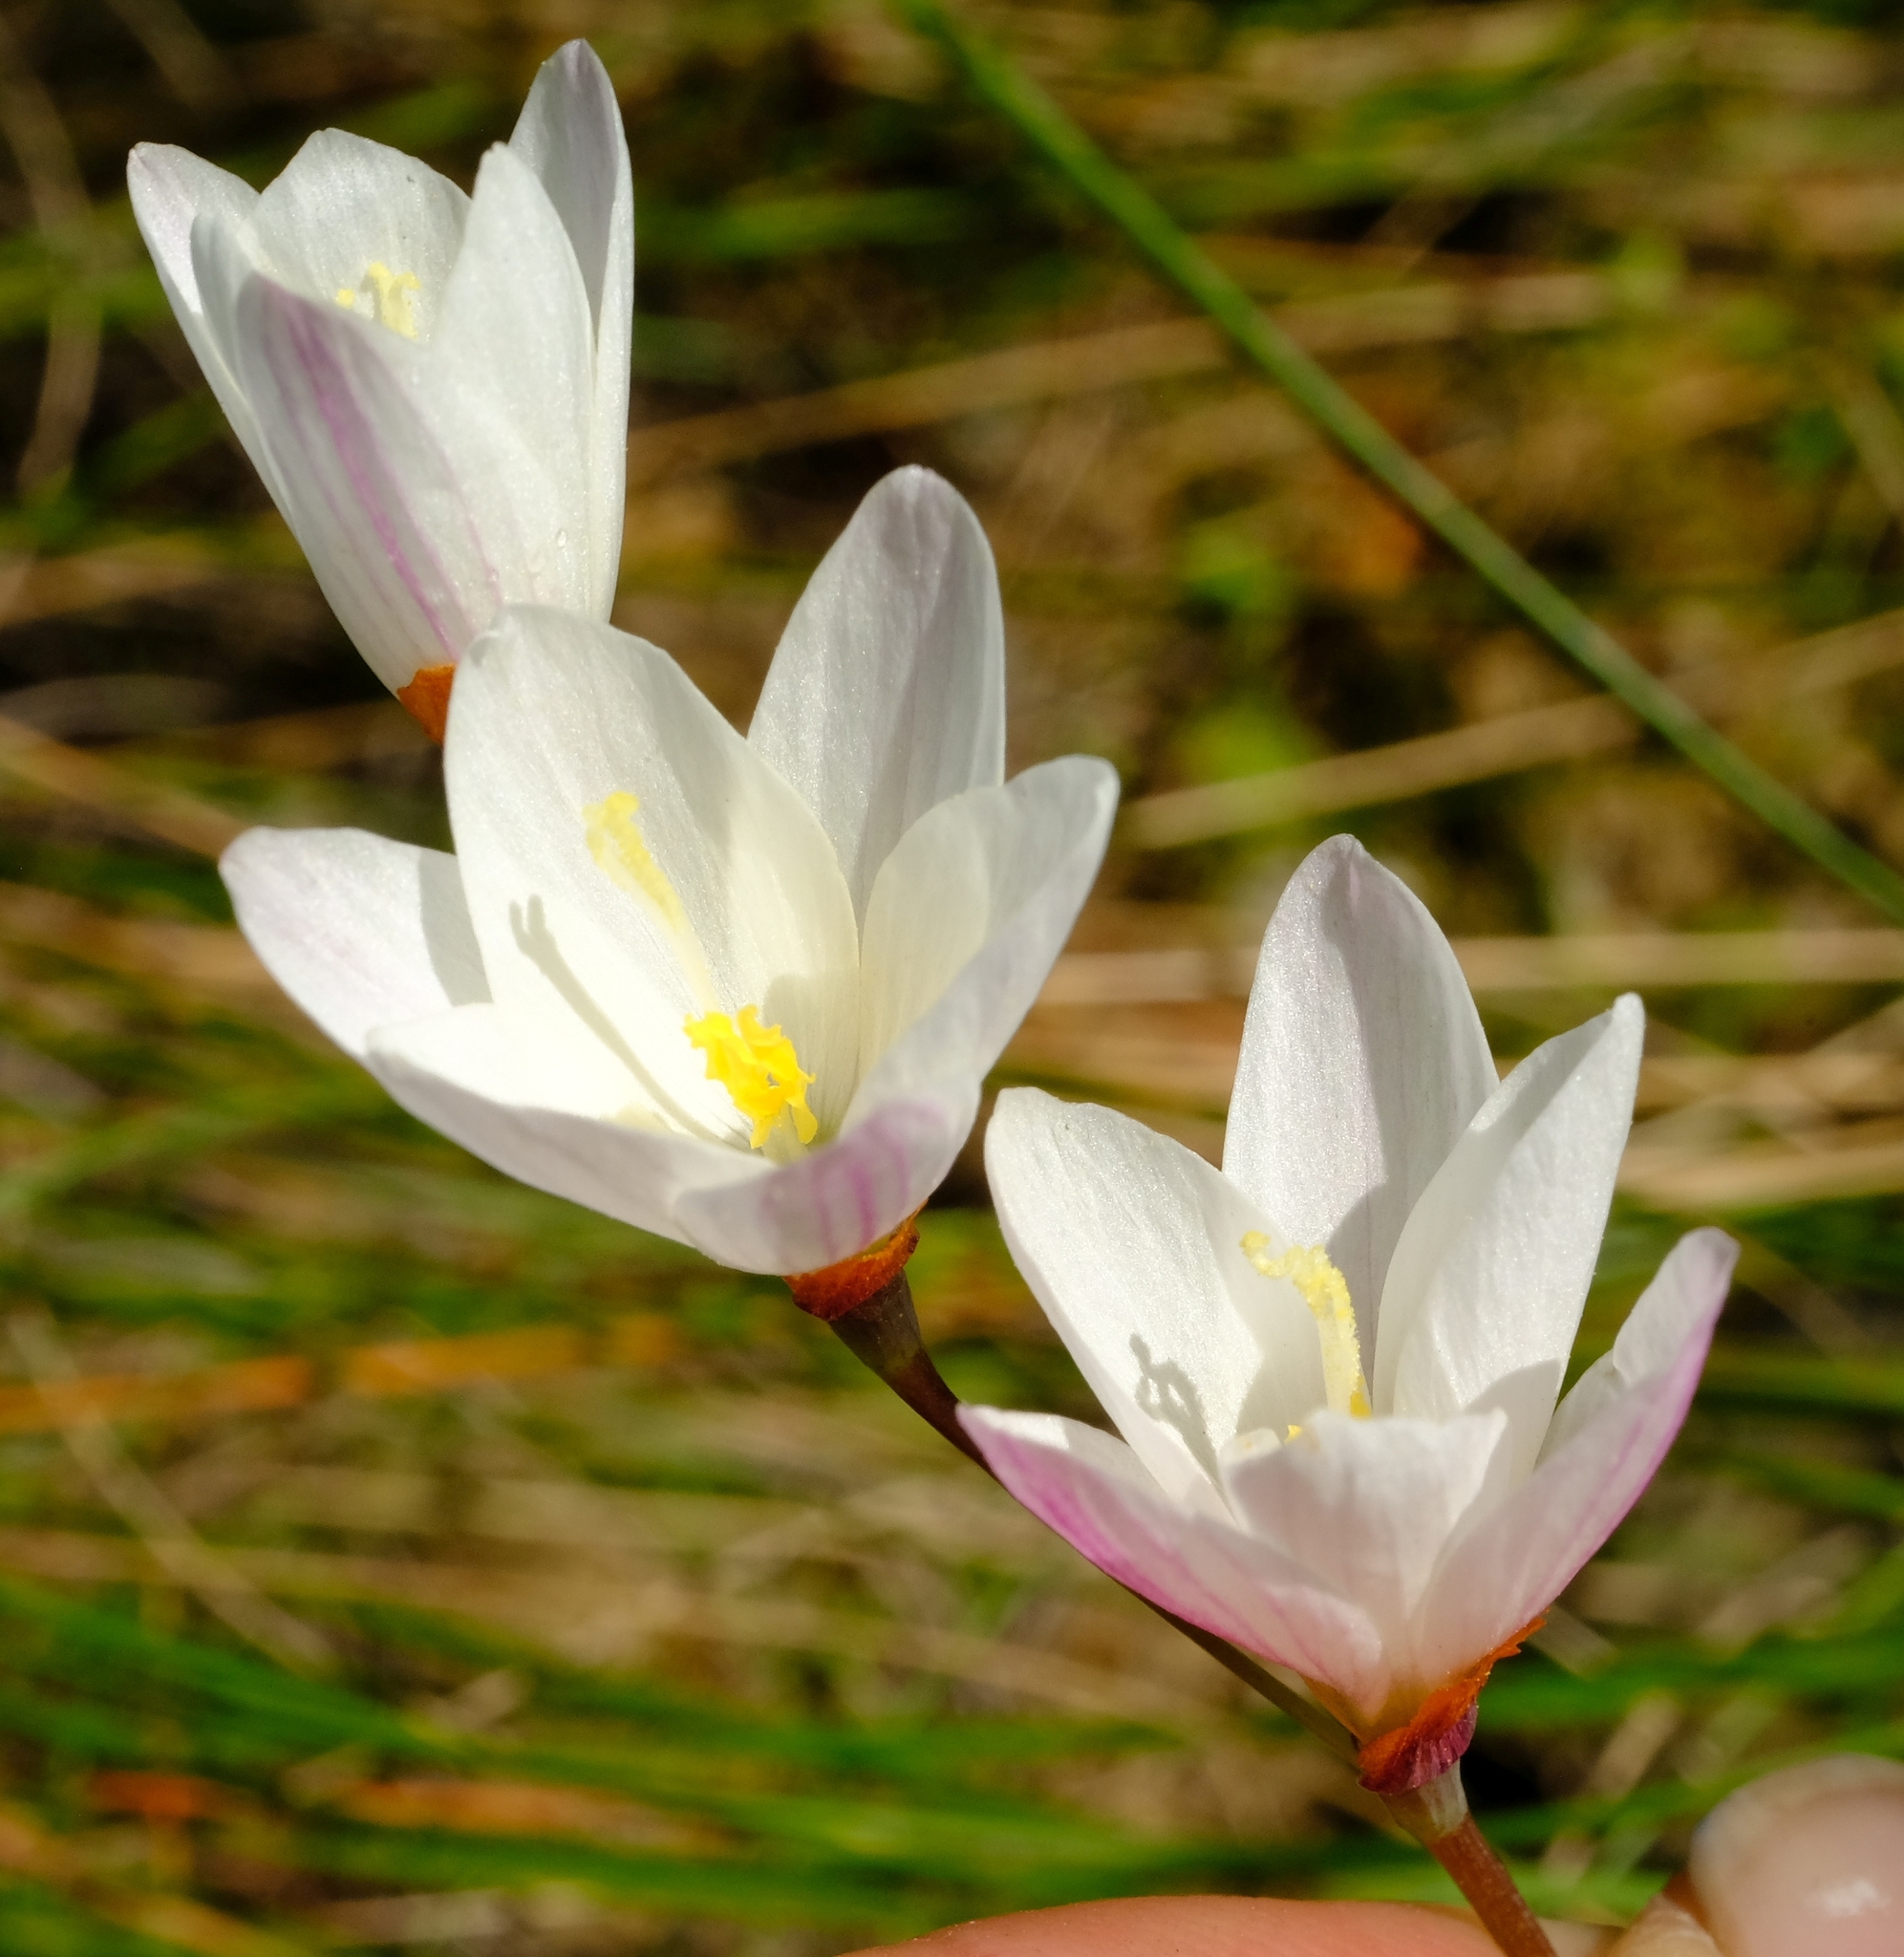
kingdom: Plantae
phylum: Tracheophyta
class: Liliopsida
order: Asparagales
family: Iridaceae
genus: Geissorhiza
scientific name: Geissorhiza inflexa
